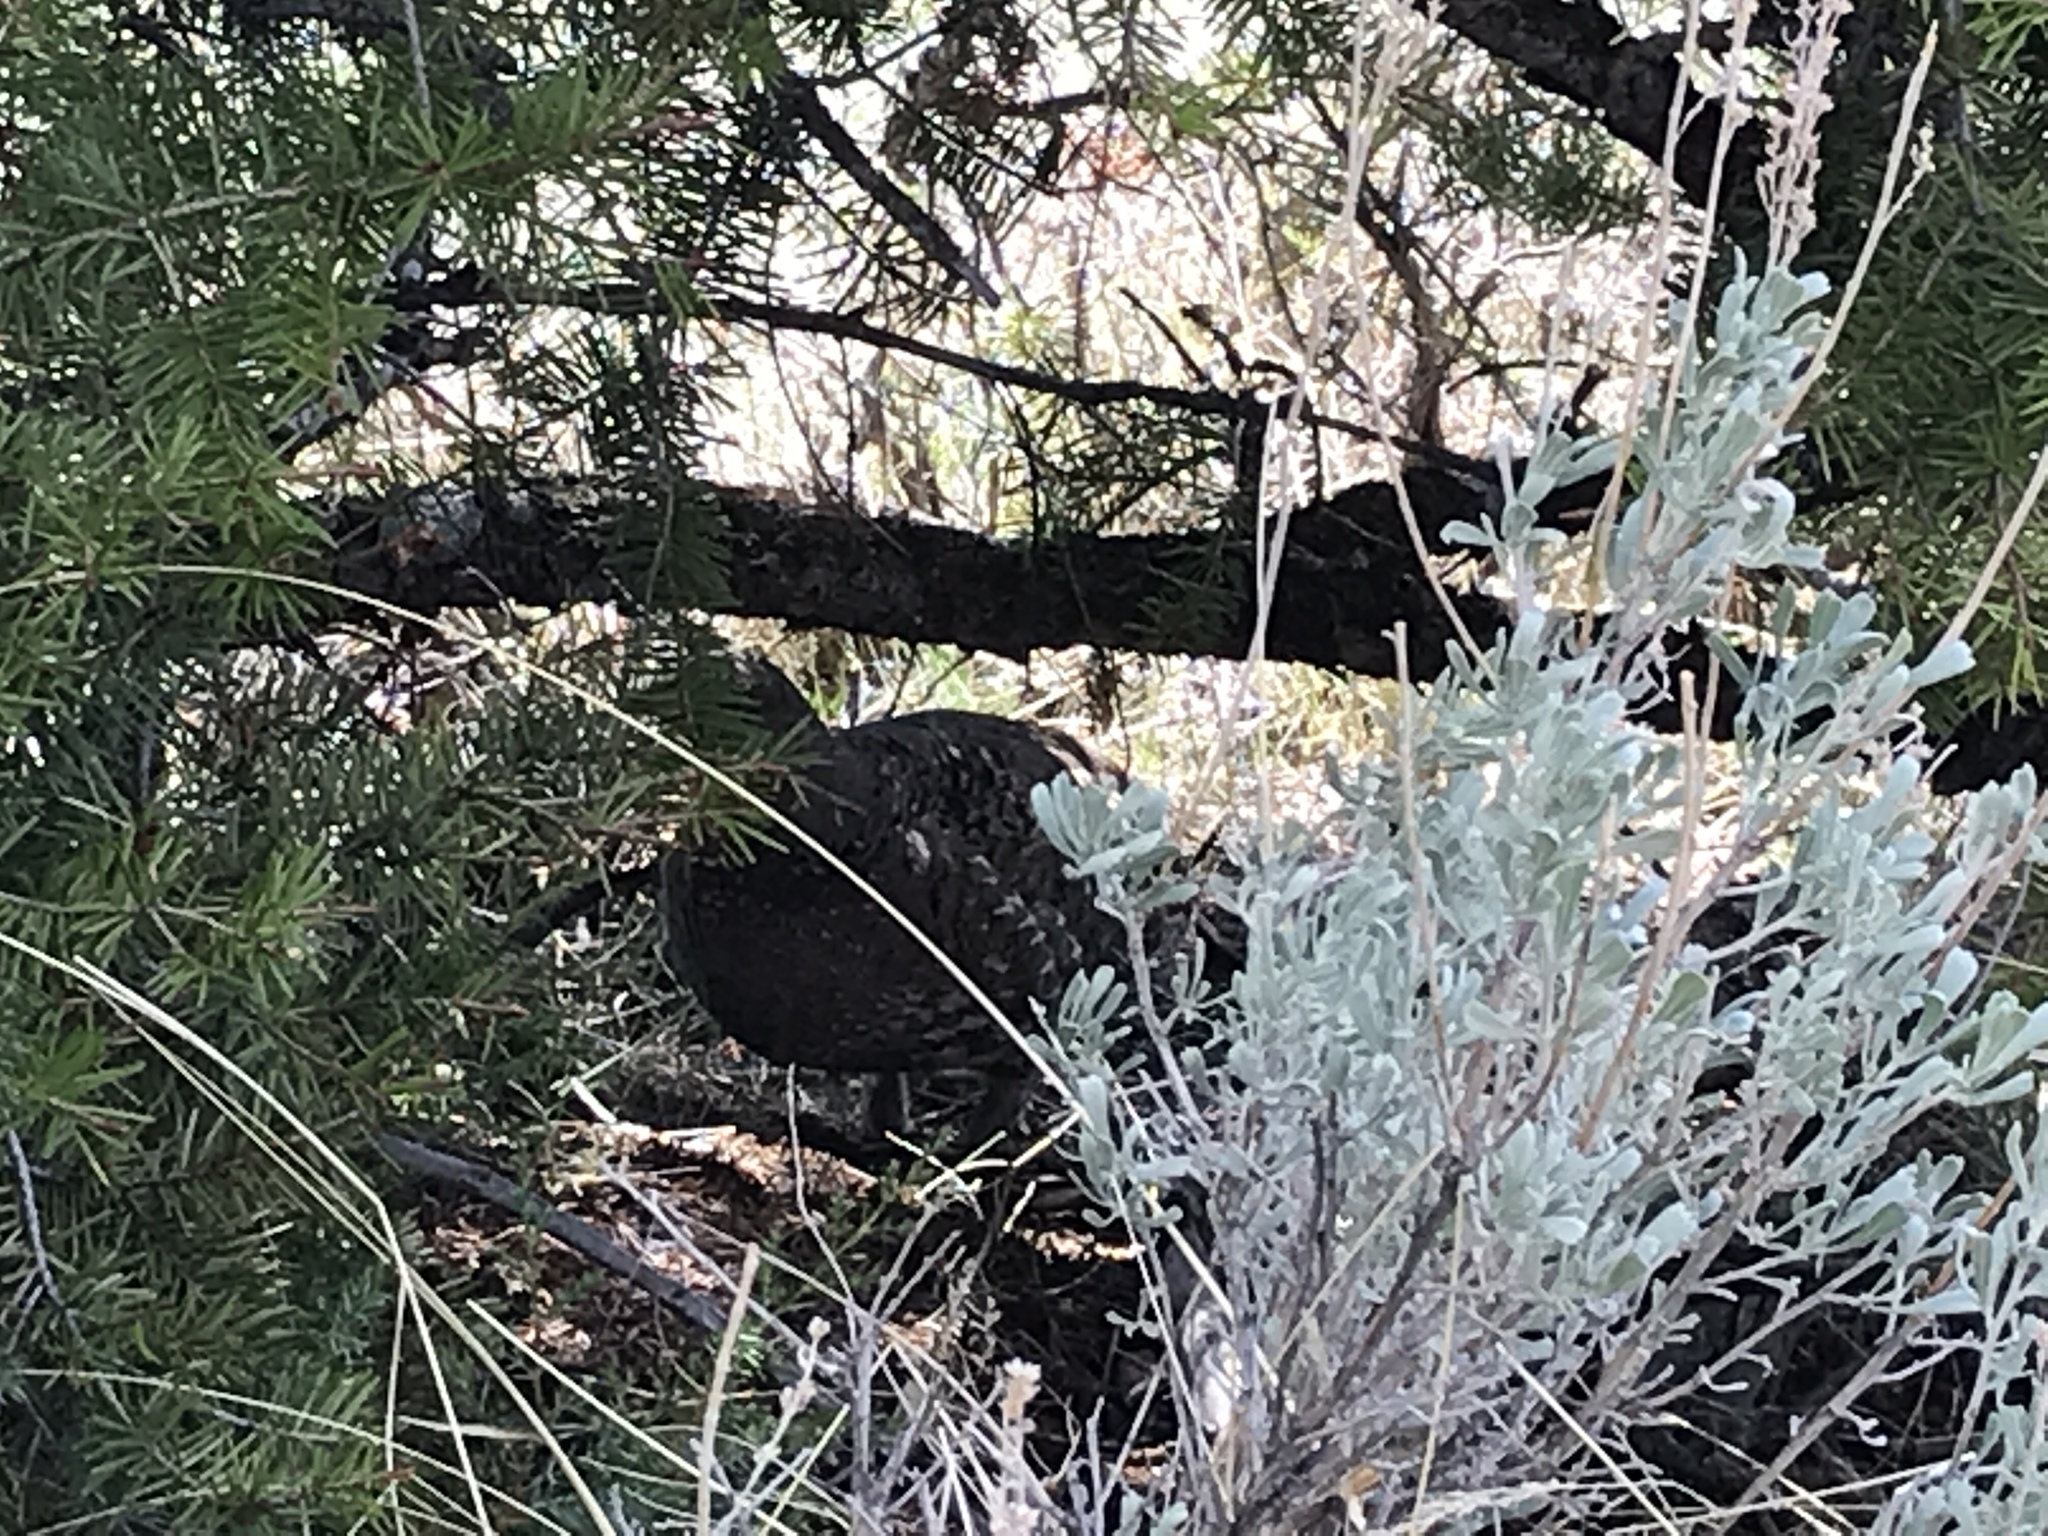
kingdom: Animalia
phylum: Chordata
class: Aves
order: Galliformes
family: Phasianidae
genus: Dendragapus
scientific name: Dendragapus obscurus
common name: Dusky grouse
